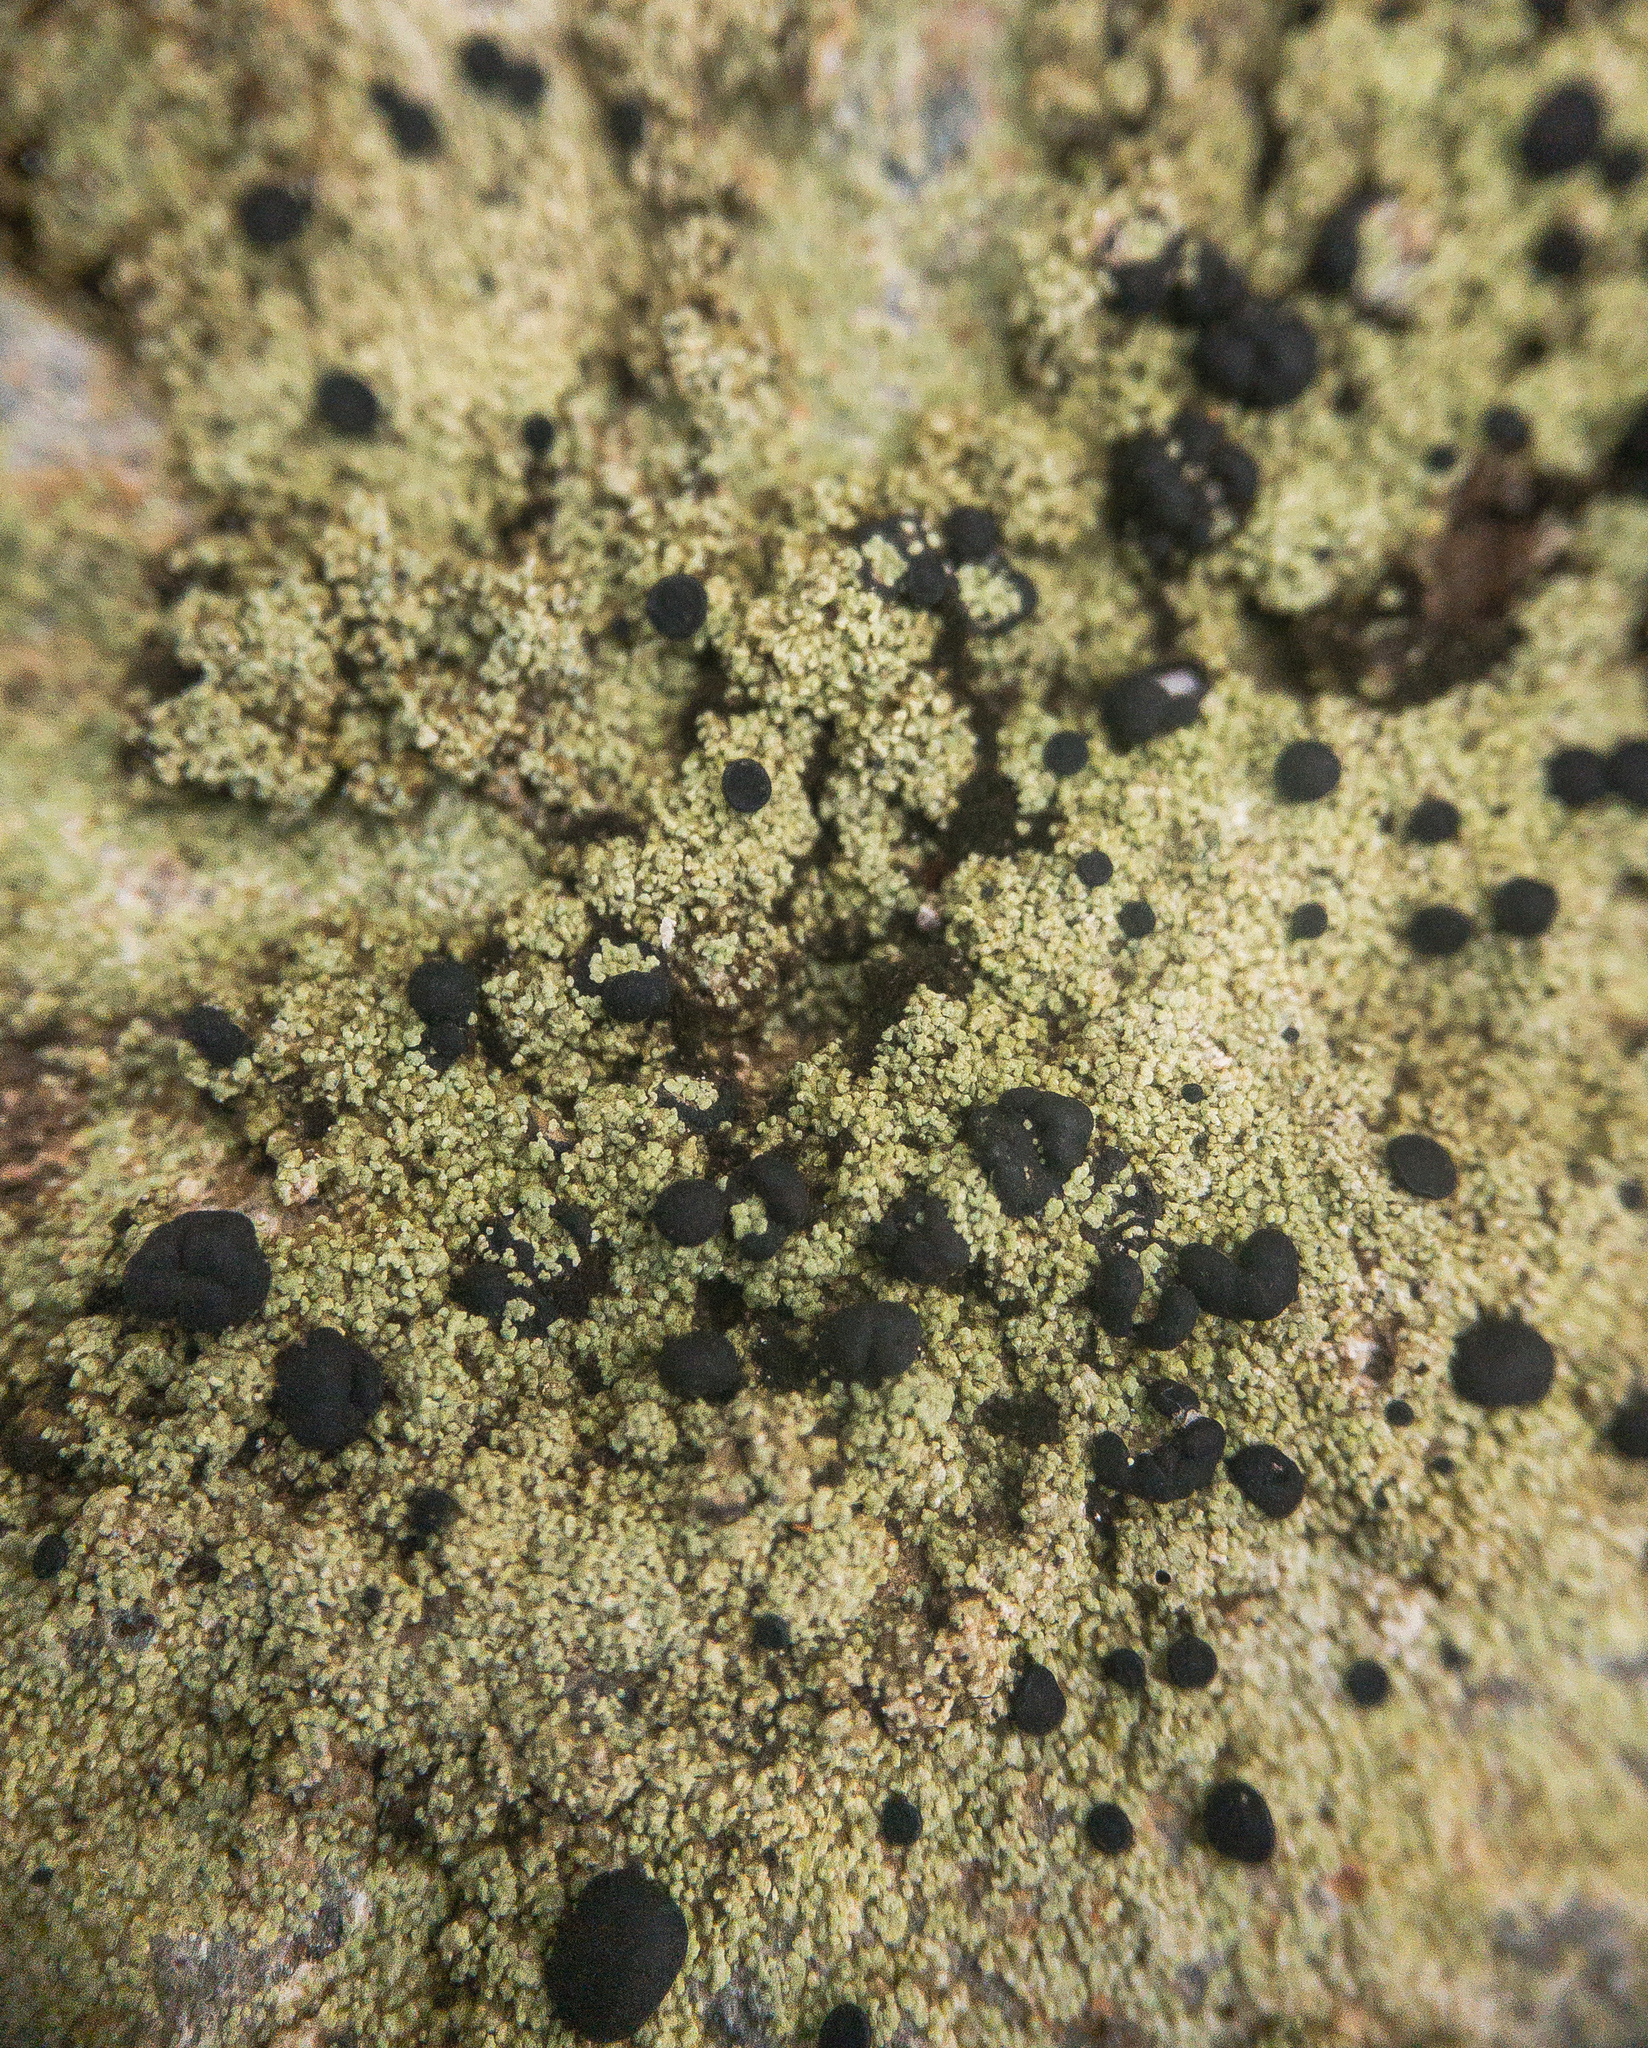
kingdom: Fungi
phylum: Ascomycota
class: Lecanoromycetes
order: Lecanorales
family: Ramalinaceae
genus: Catillochroma
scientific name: Catillochroma beechingii
